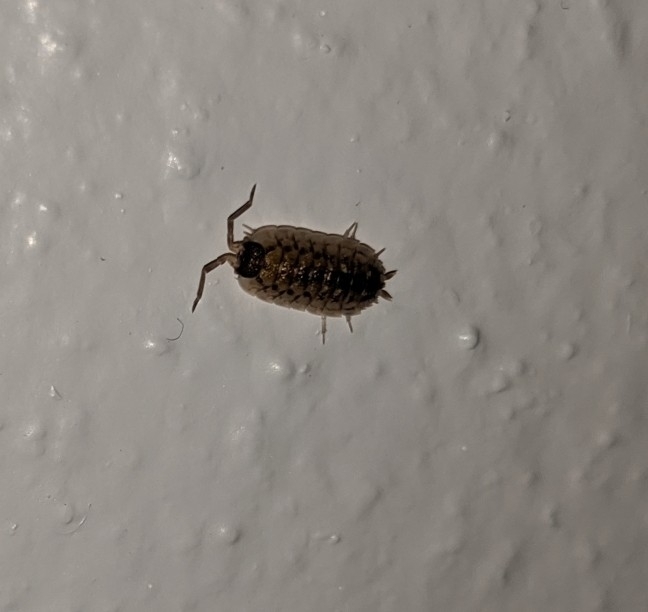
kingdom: Animalia
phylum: Arthropoda
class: Malacostraca
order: Isopoda
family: Porcellionidae
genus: Porcellio
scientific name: Porcellio spinicornis
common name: Painted woodlouse
